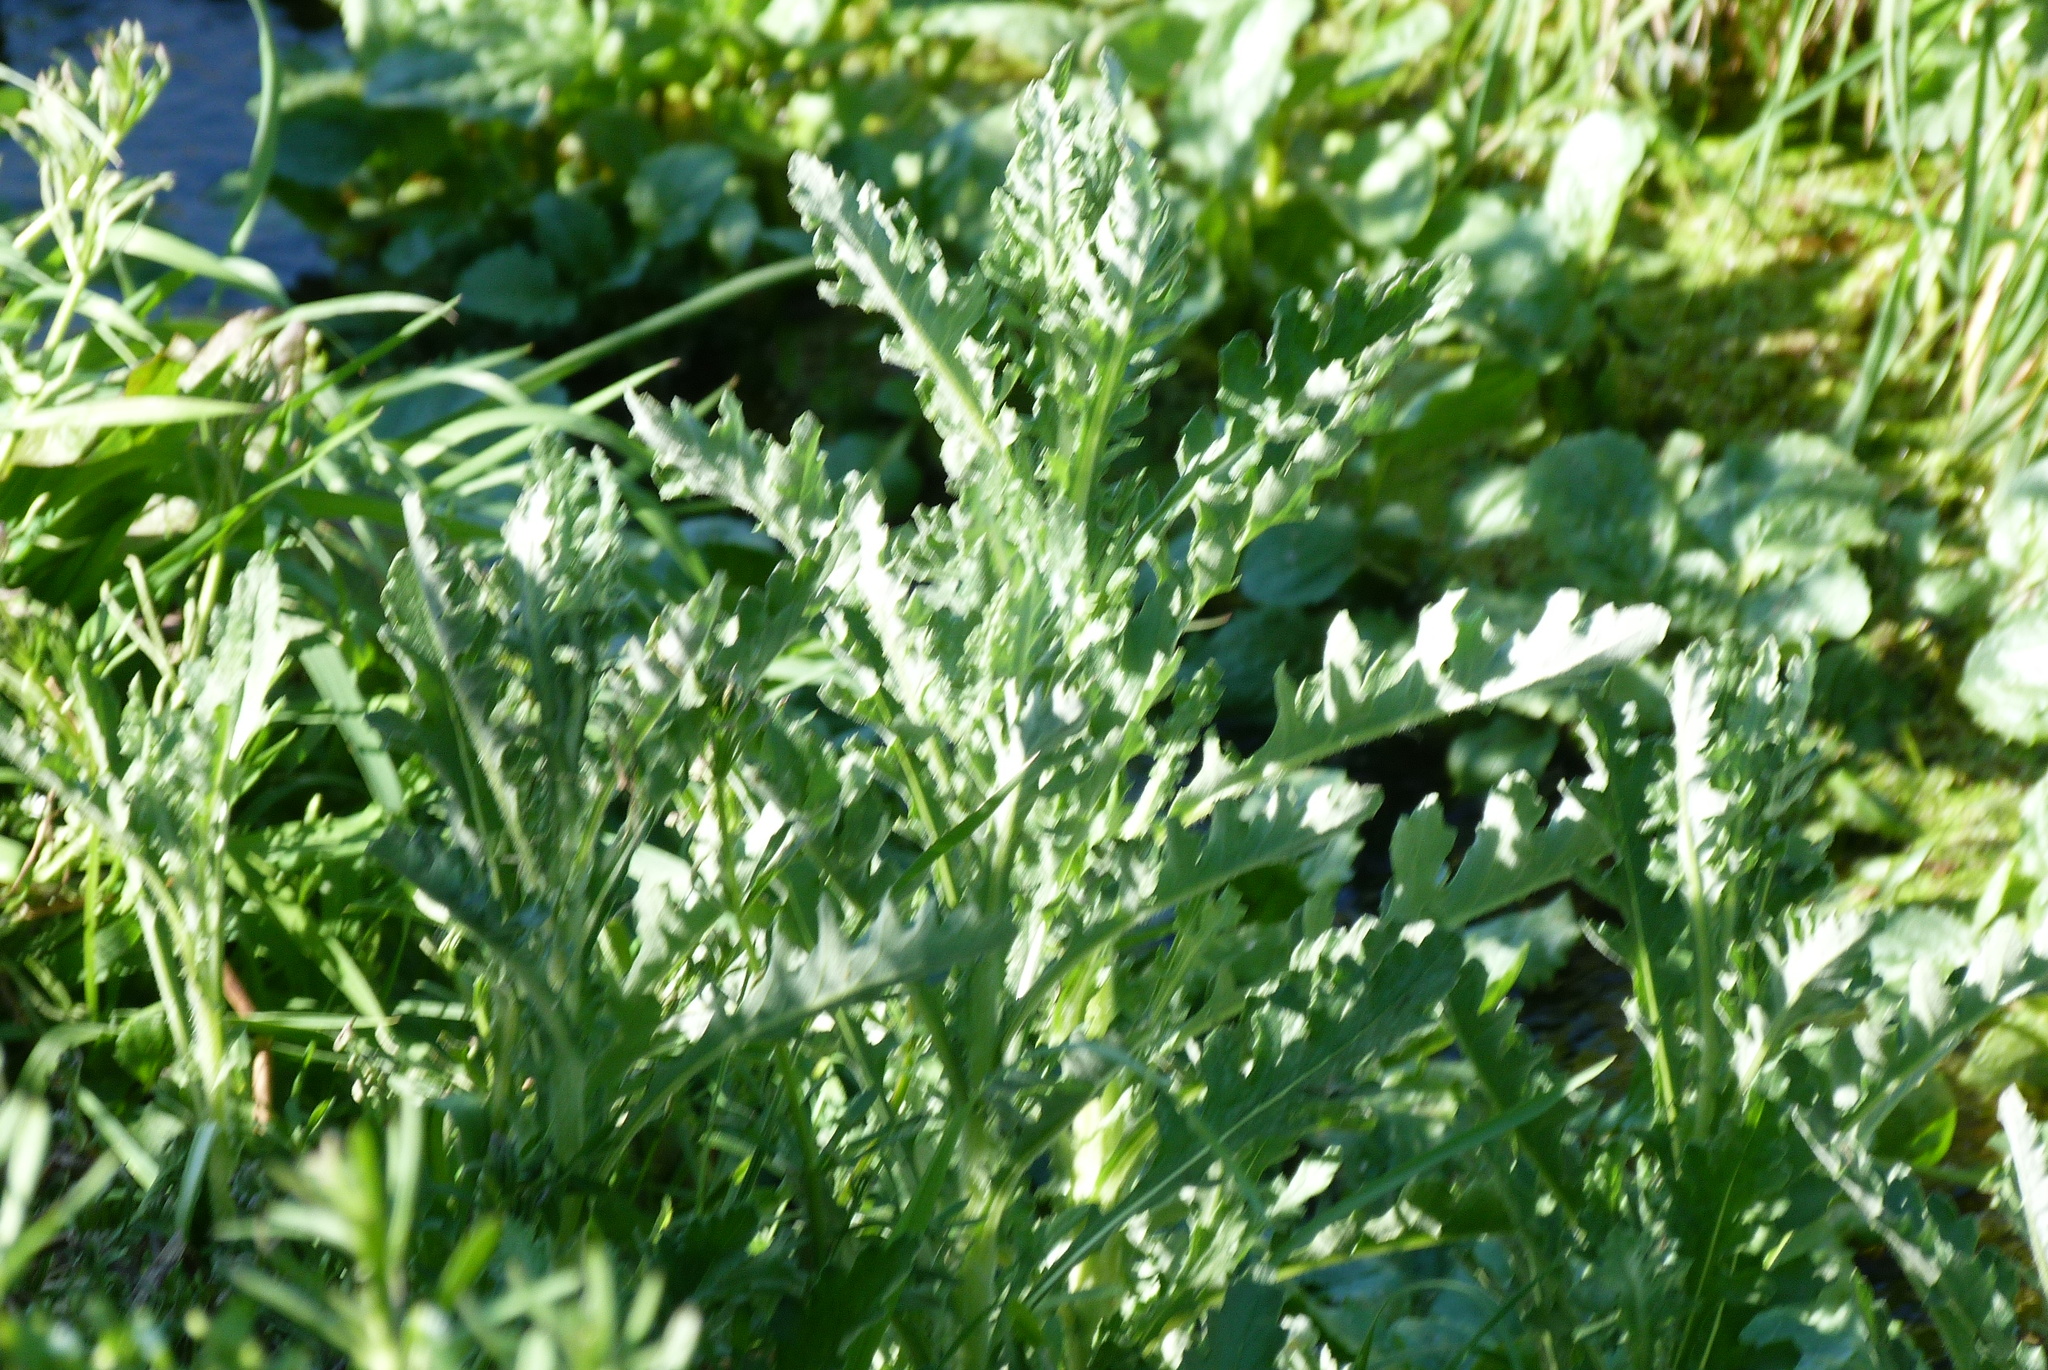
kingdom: Plantae
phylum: Tracheophyta
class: Magnoliopsida
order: Asterales
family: Asteraceae
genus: Senecio
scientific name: Senecio glomeratus
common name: Cutleaf burnweed
